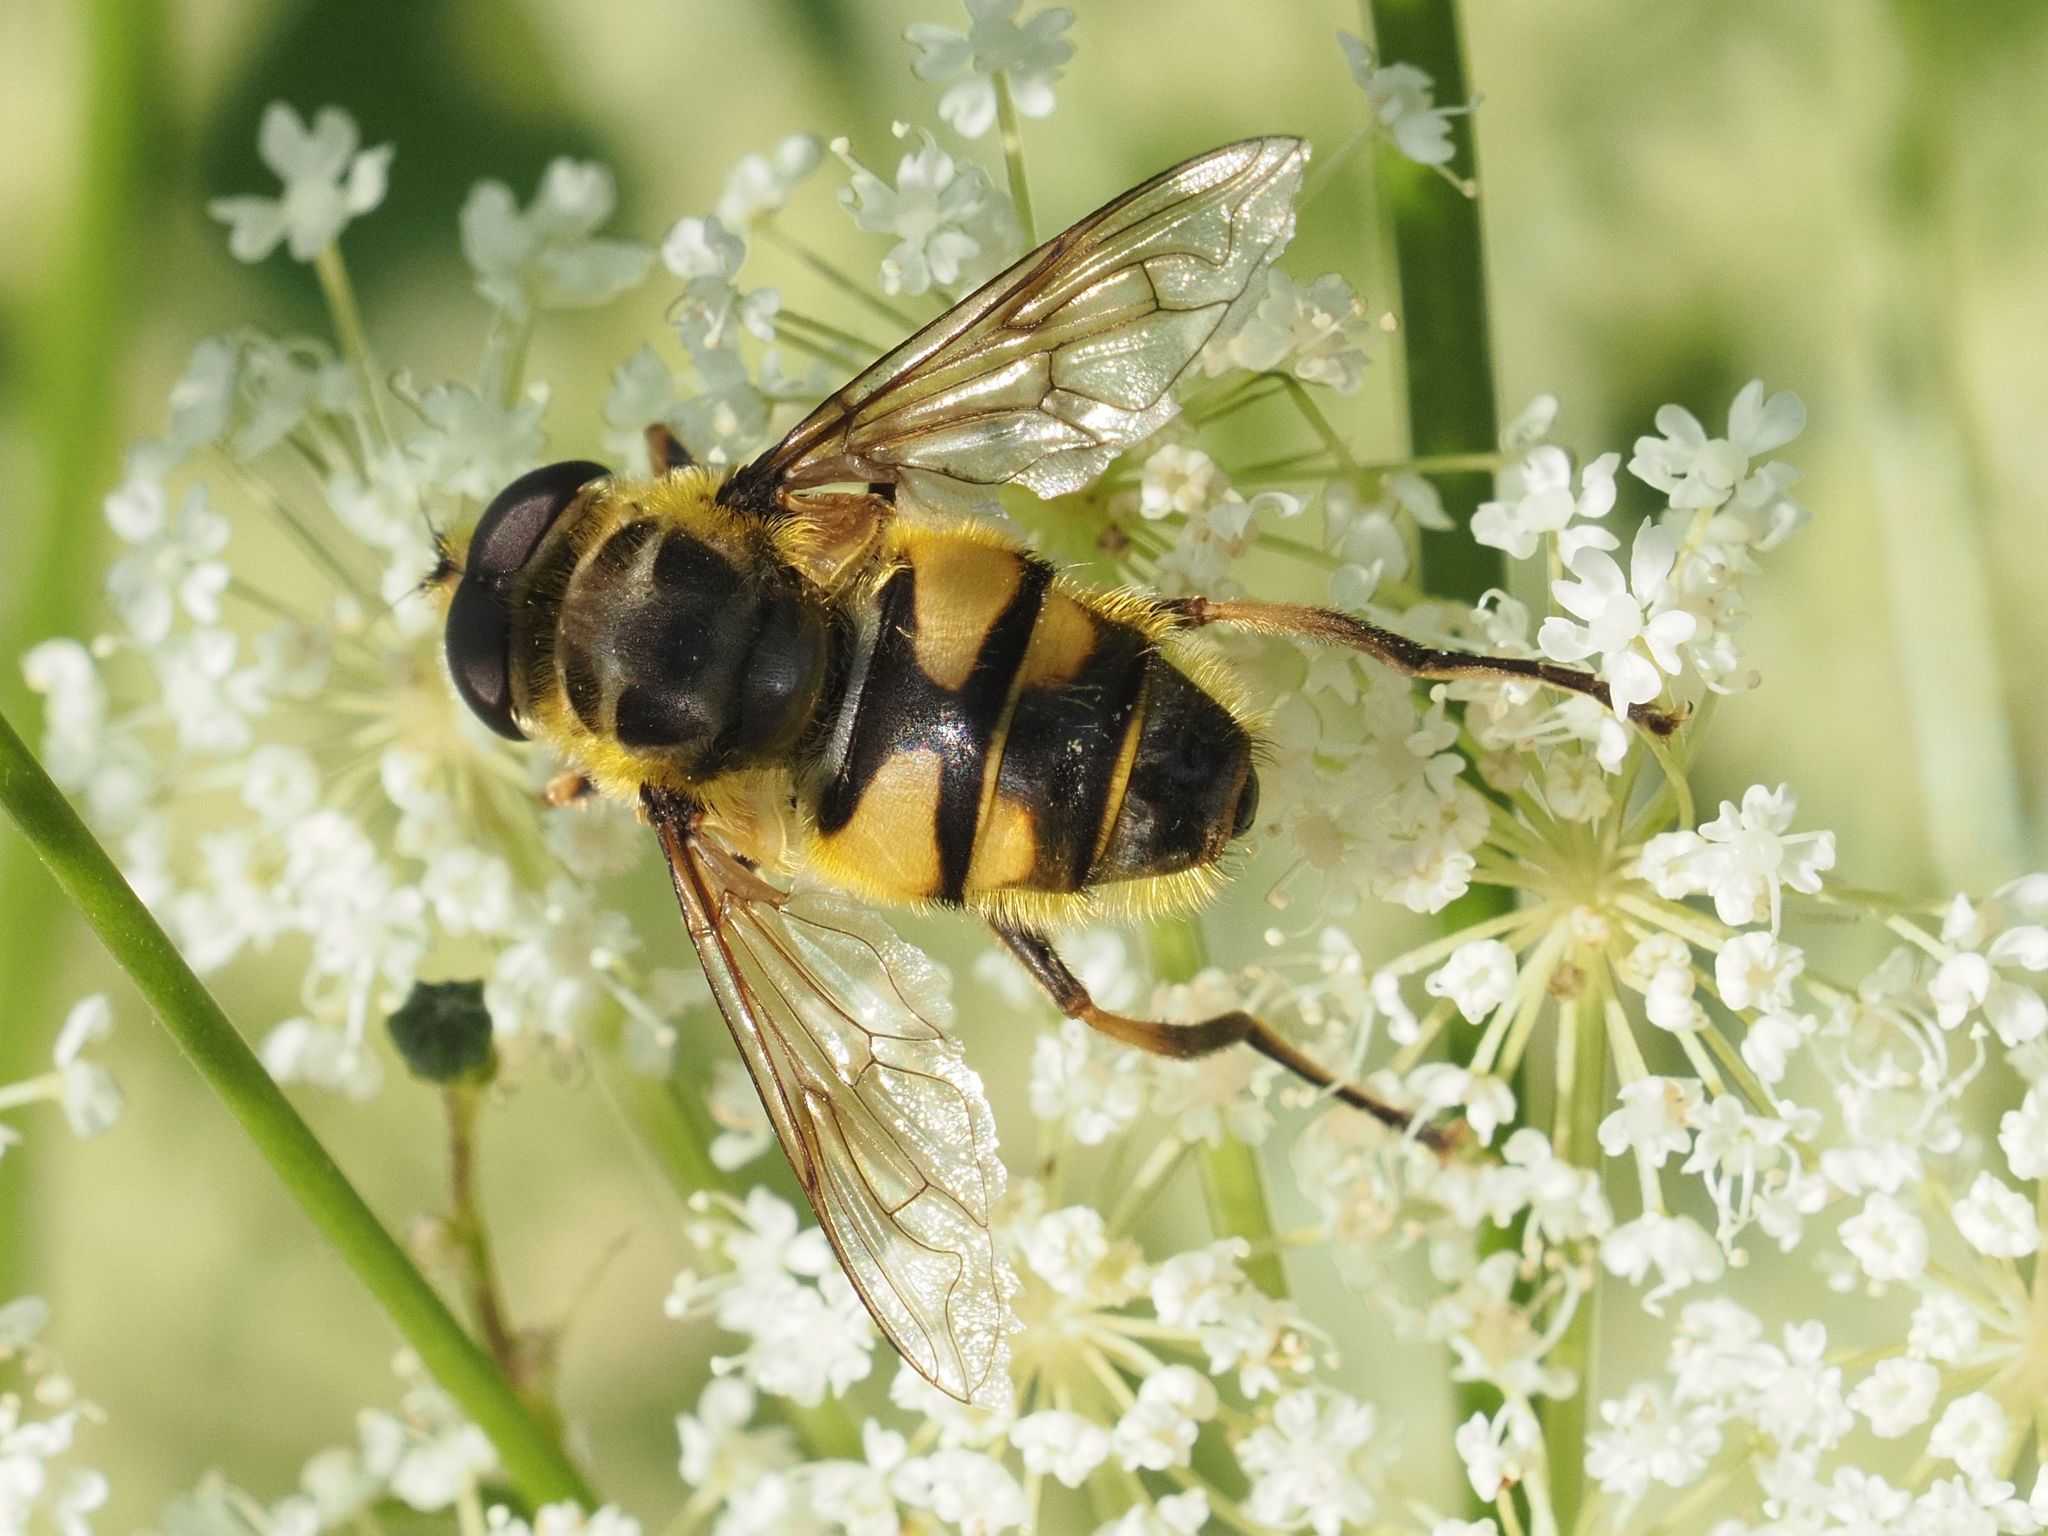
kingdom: Animalia
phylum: Arthropoda
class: Insecta
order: Diptera
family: Syrphidae
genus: Myathropa
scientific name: Myathropa florea
